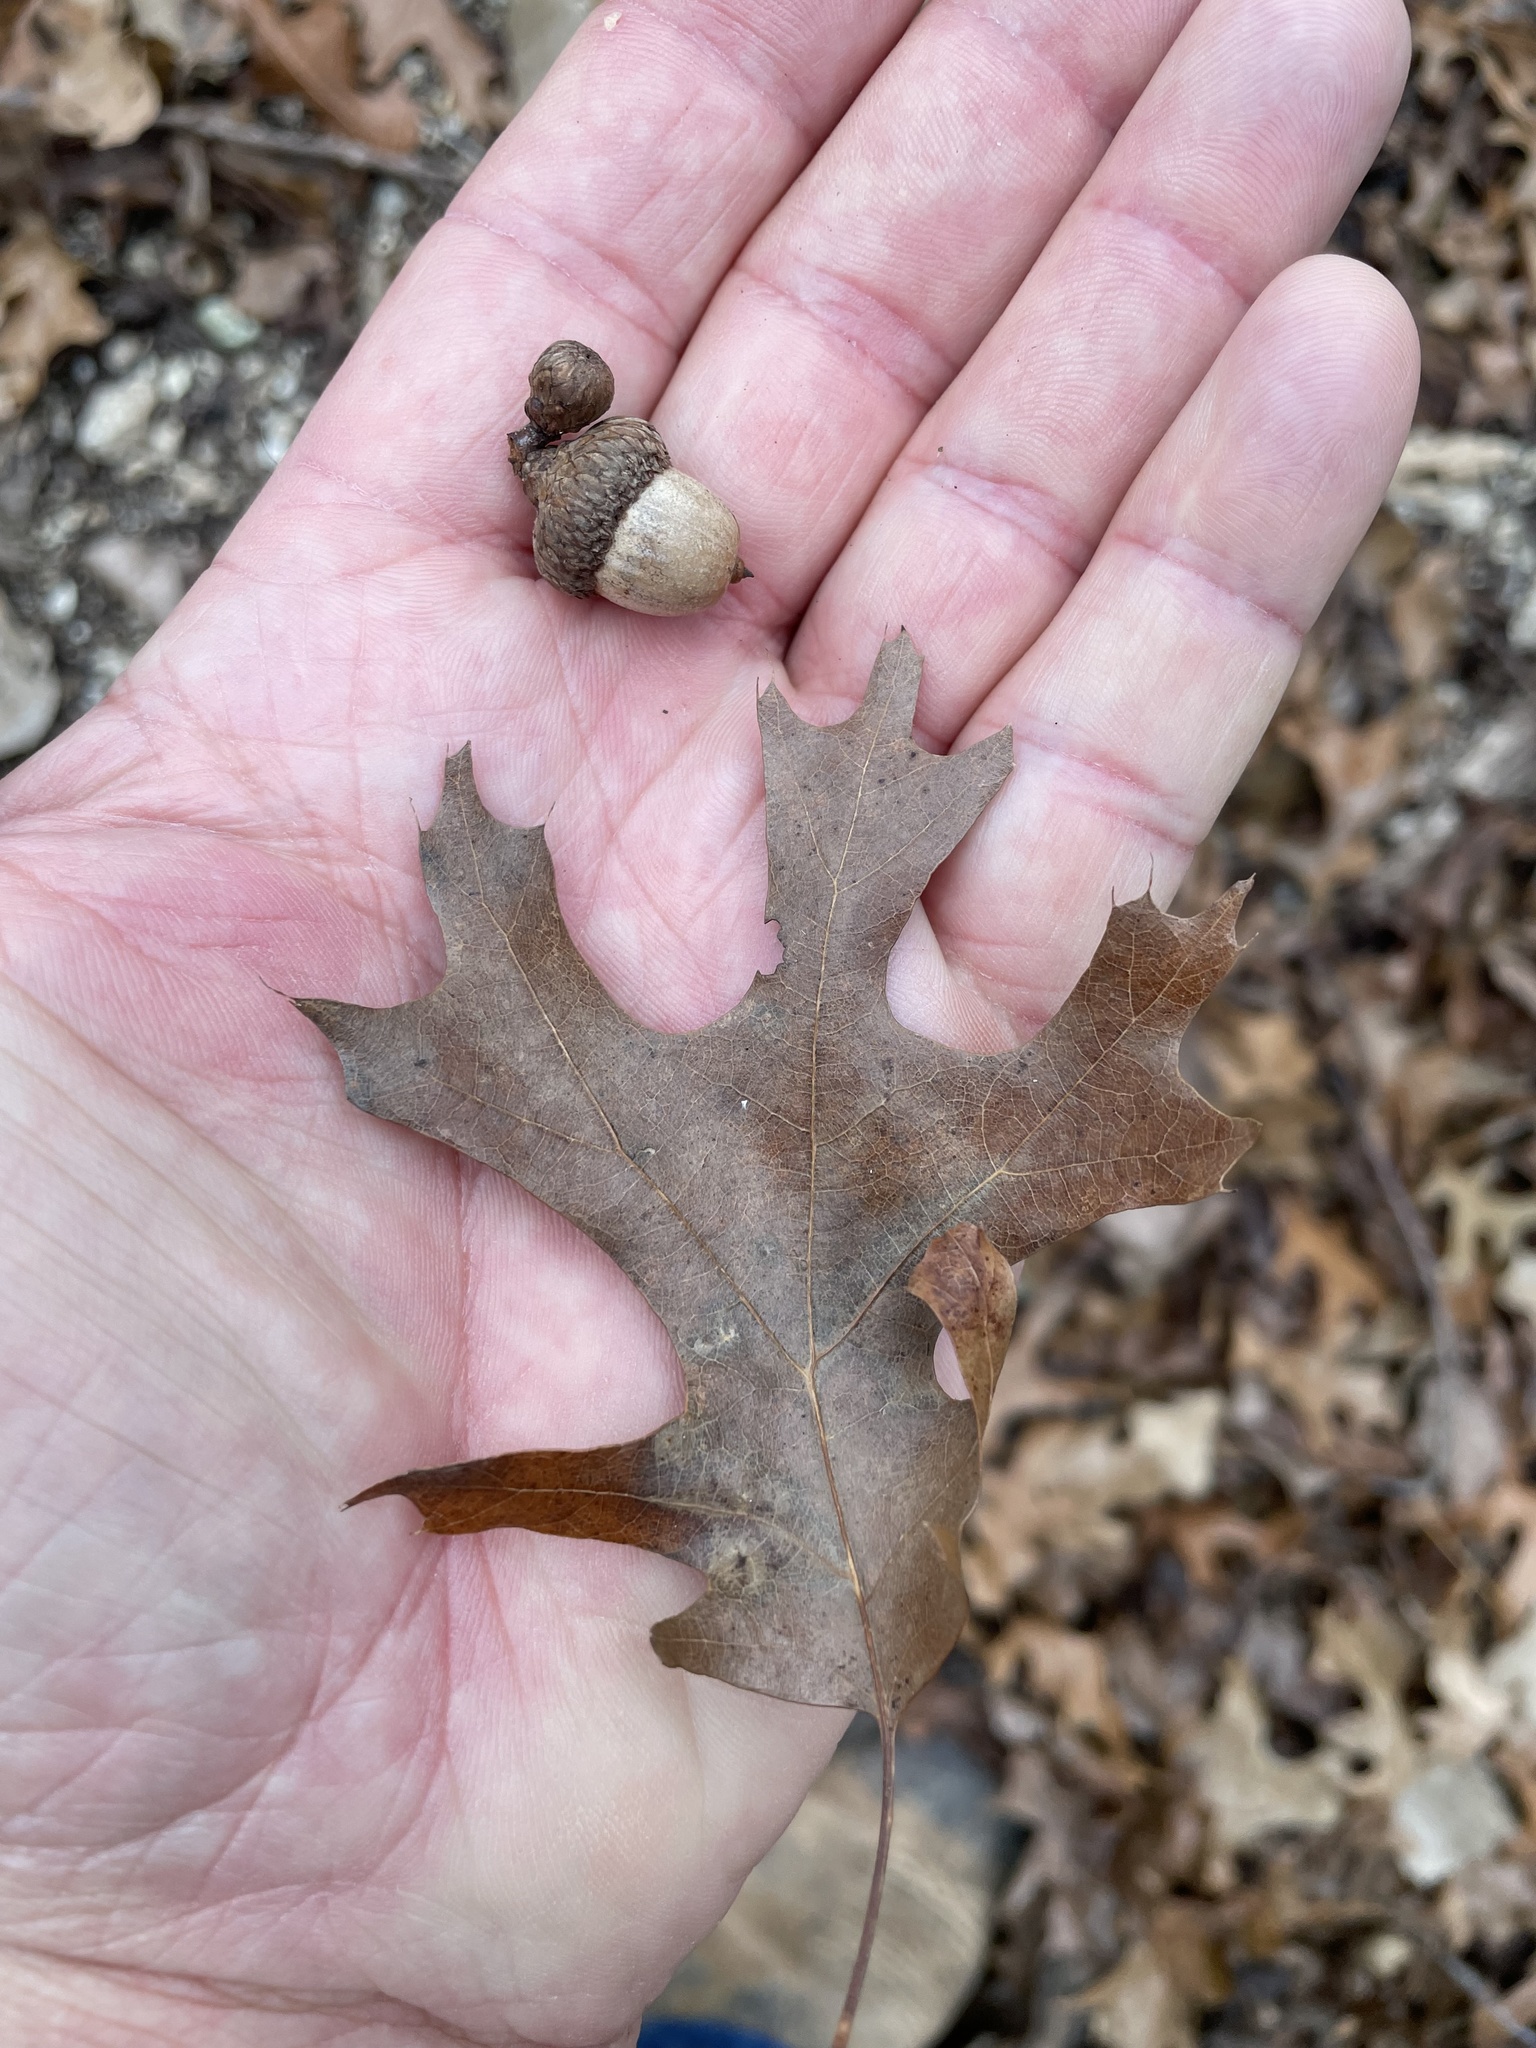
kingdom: Plantae
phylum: Tracheophyta
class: Magnoliopsida
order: Fagales
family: Fagaceae
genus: Quercus
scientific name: Quercus buckleyi
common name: Buckley oak
